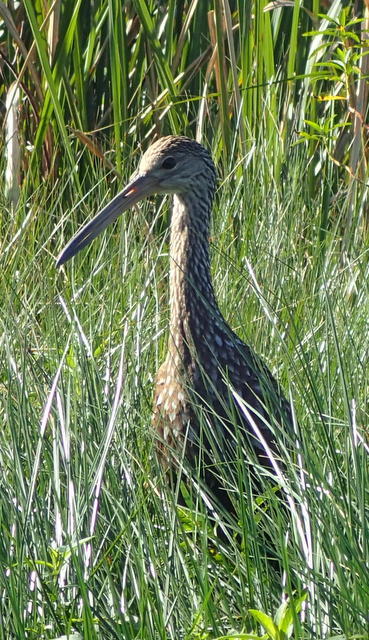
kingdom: Animalia
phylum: Chordata
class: Aves
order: Gruiformes
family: Aramidae
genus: Aramus
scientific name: Aramus guarauna
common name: Limpkin
